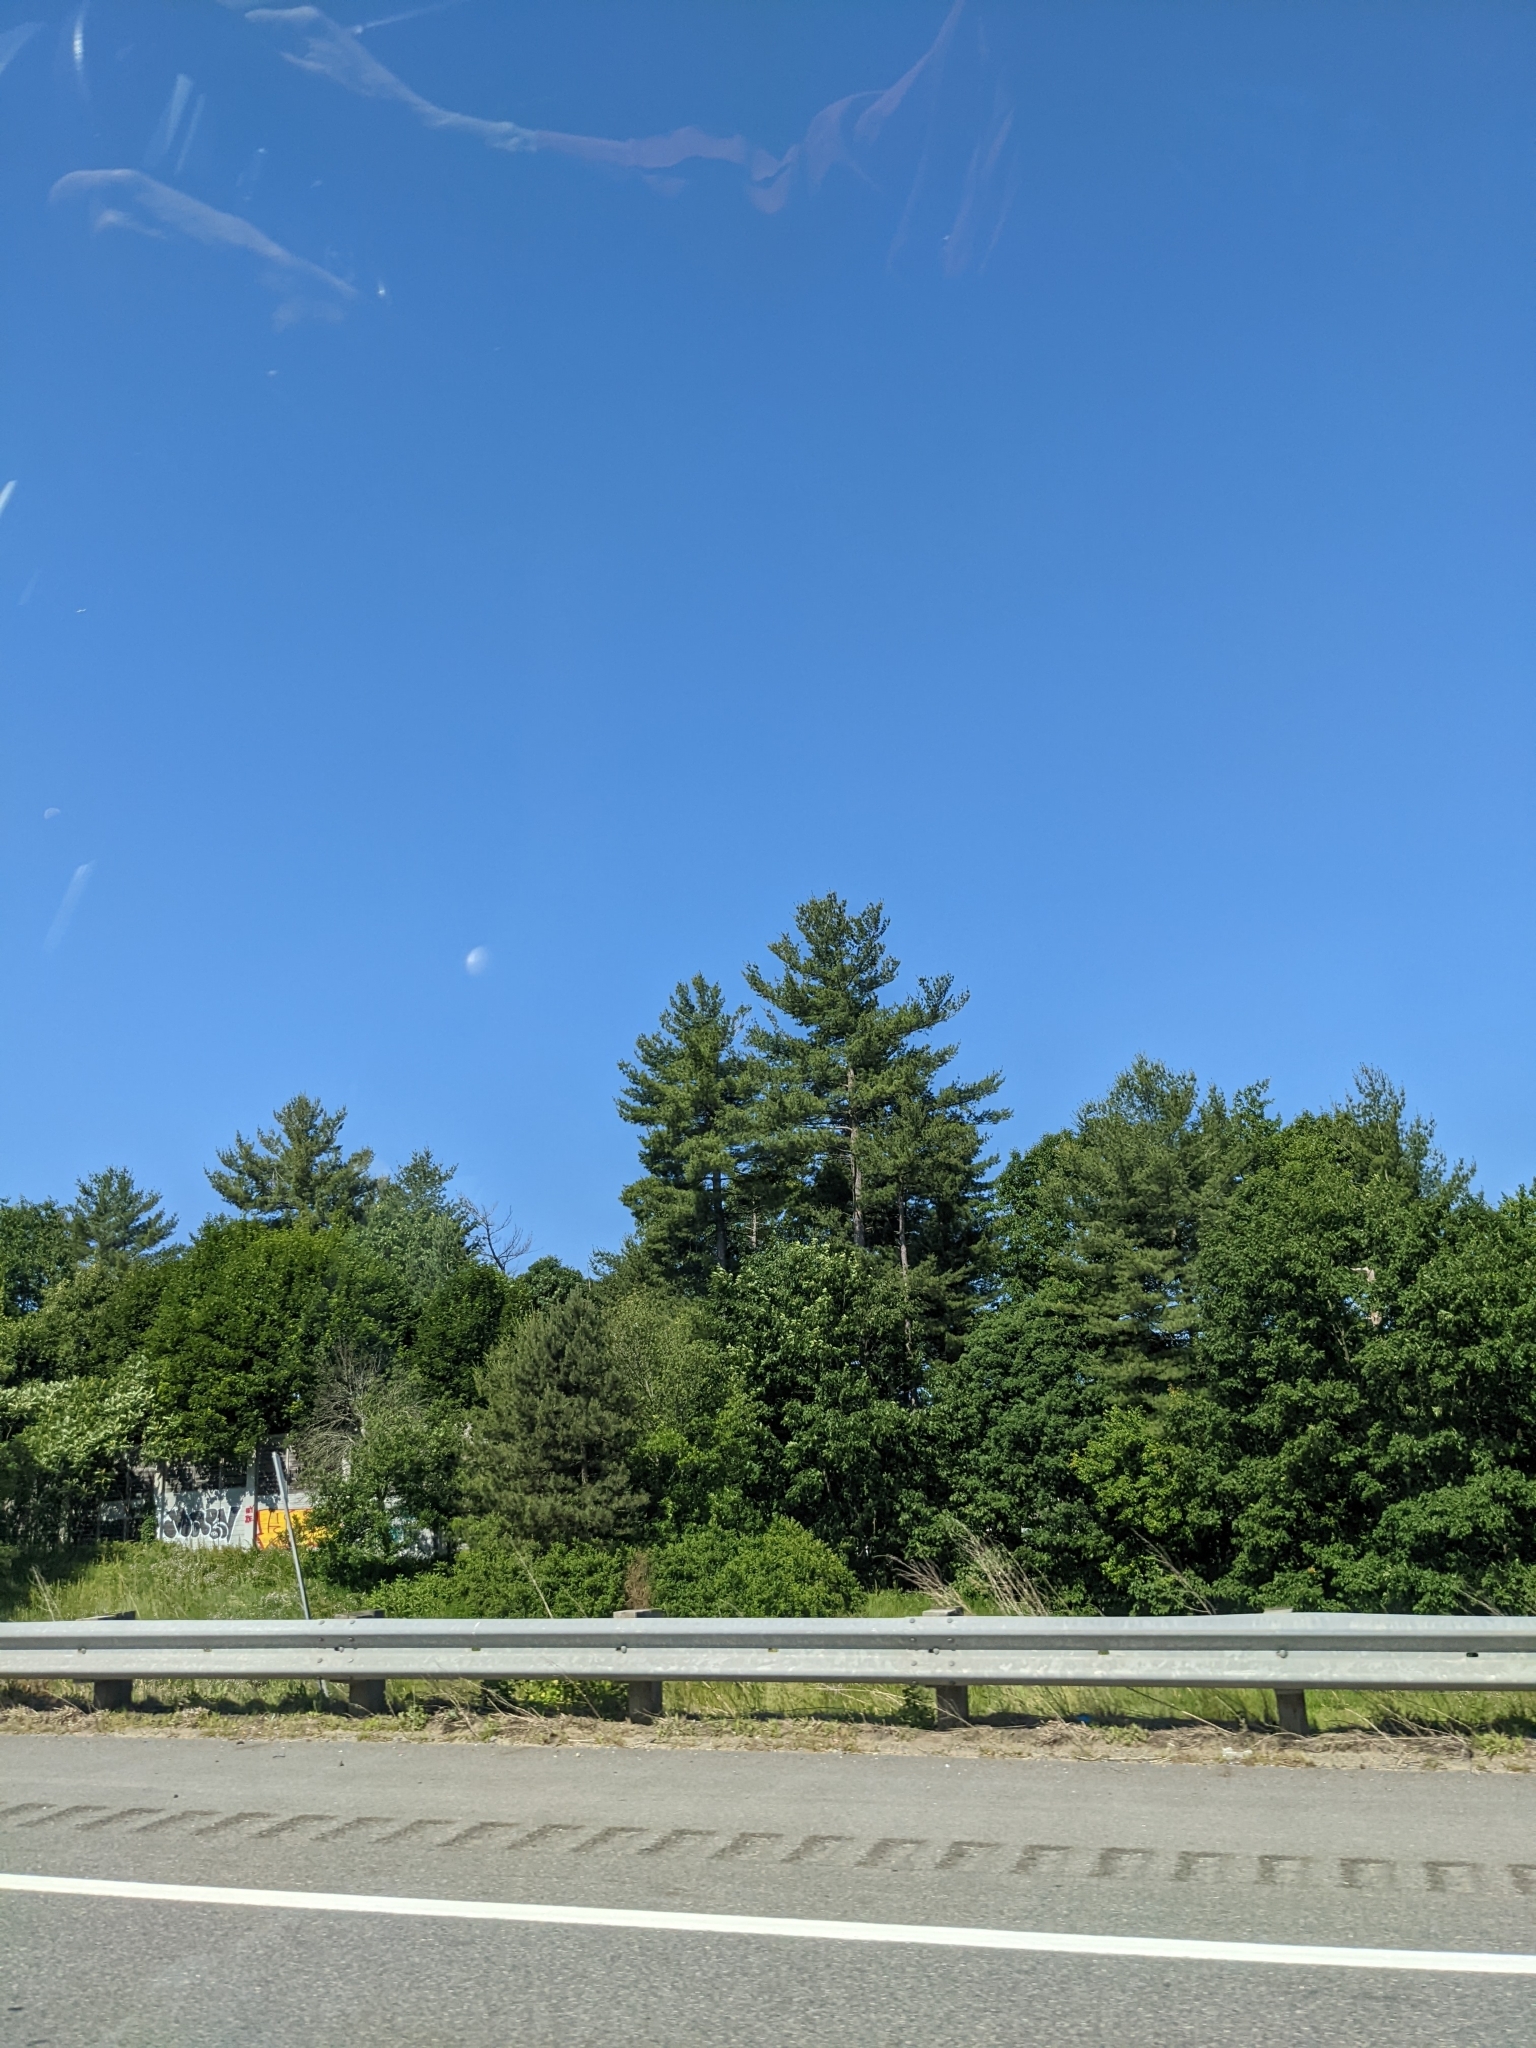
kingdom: Plantae
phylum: Tracheophyta
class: Pinopsida
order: Pinales
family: Pinaceae
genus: Pinus
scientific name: Pinus strobus
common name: Weymouth pine
